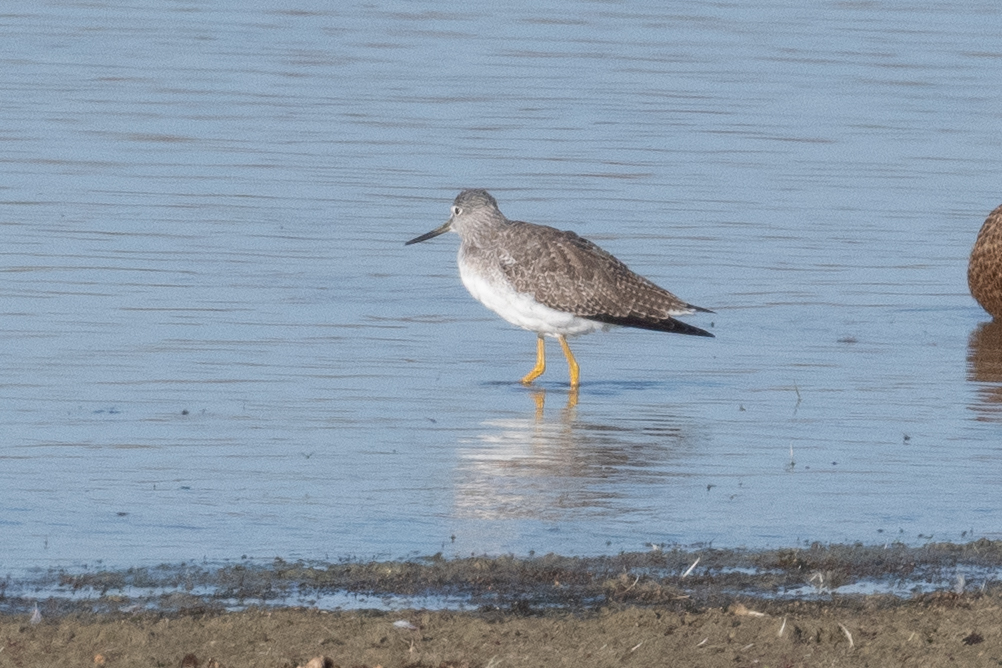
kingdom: Animalia
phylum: Chordata
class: Aves
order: Charadriiformes
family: Scolopacidae
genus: Tringa
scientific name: Tringa melanoleuca
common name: Greater yellowlegs
